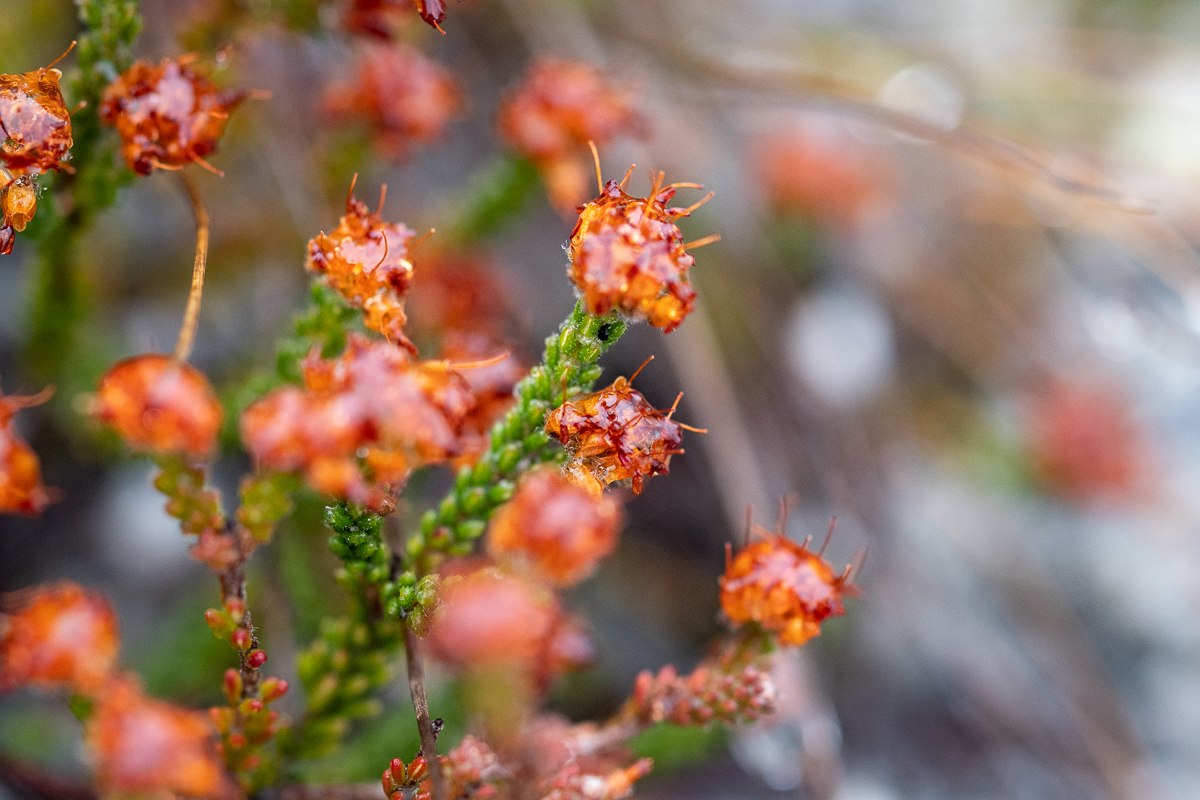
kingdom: Plantae
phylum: Tracheophyta
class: Magnoliopsida
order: Ericales
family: Ericaceae
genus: Erica
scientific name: Erica ericoides
